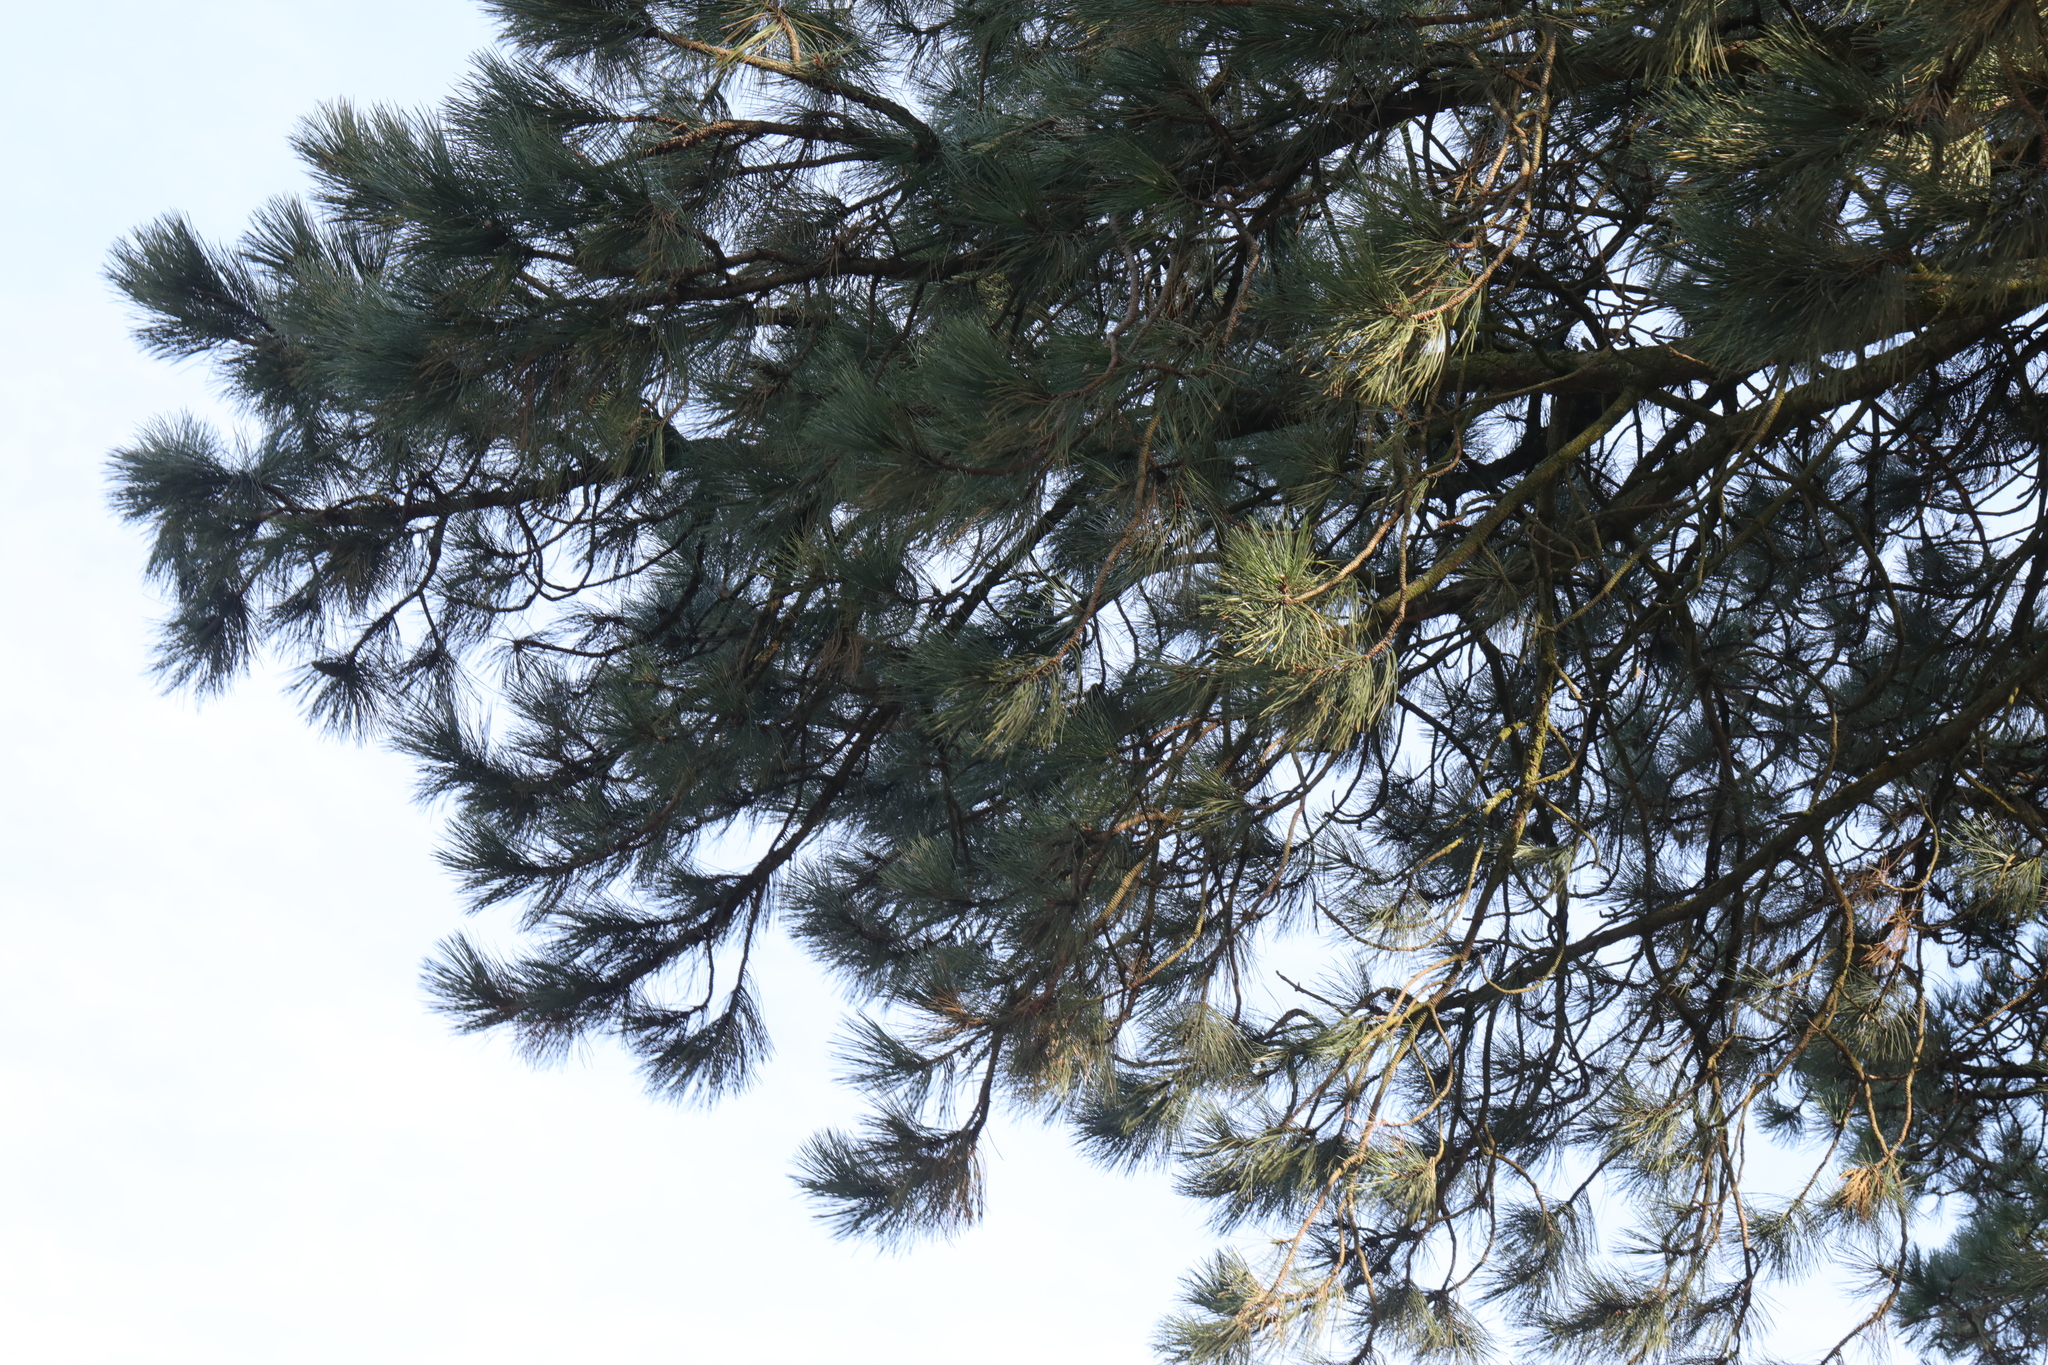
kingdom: Plantae
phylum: Tracheophyta
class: Pinopsida
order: Pinales
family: Pinaceae
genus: Pinus
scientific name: Pinus sylvestris
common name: Scots pine
